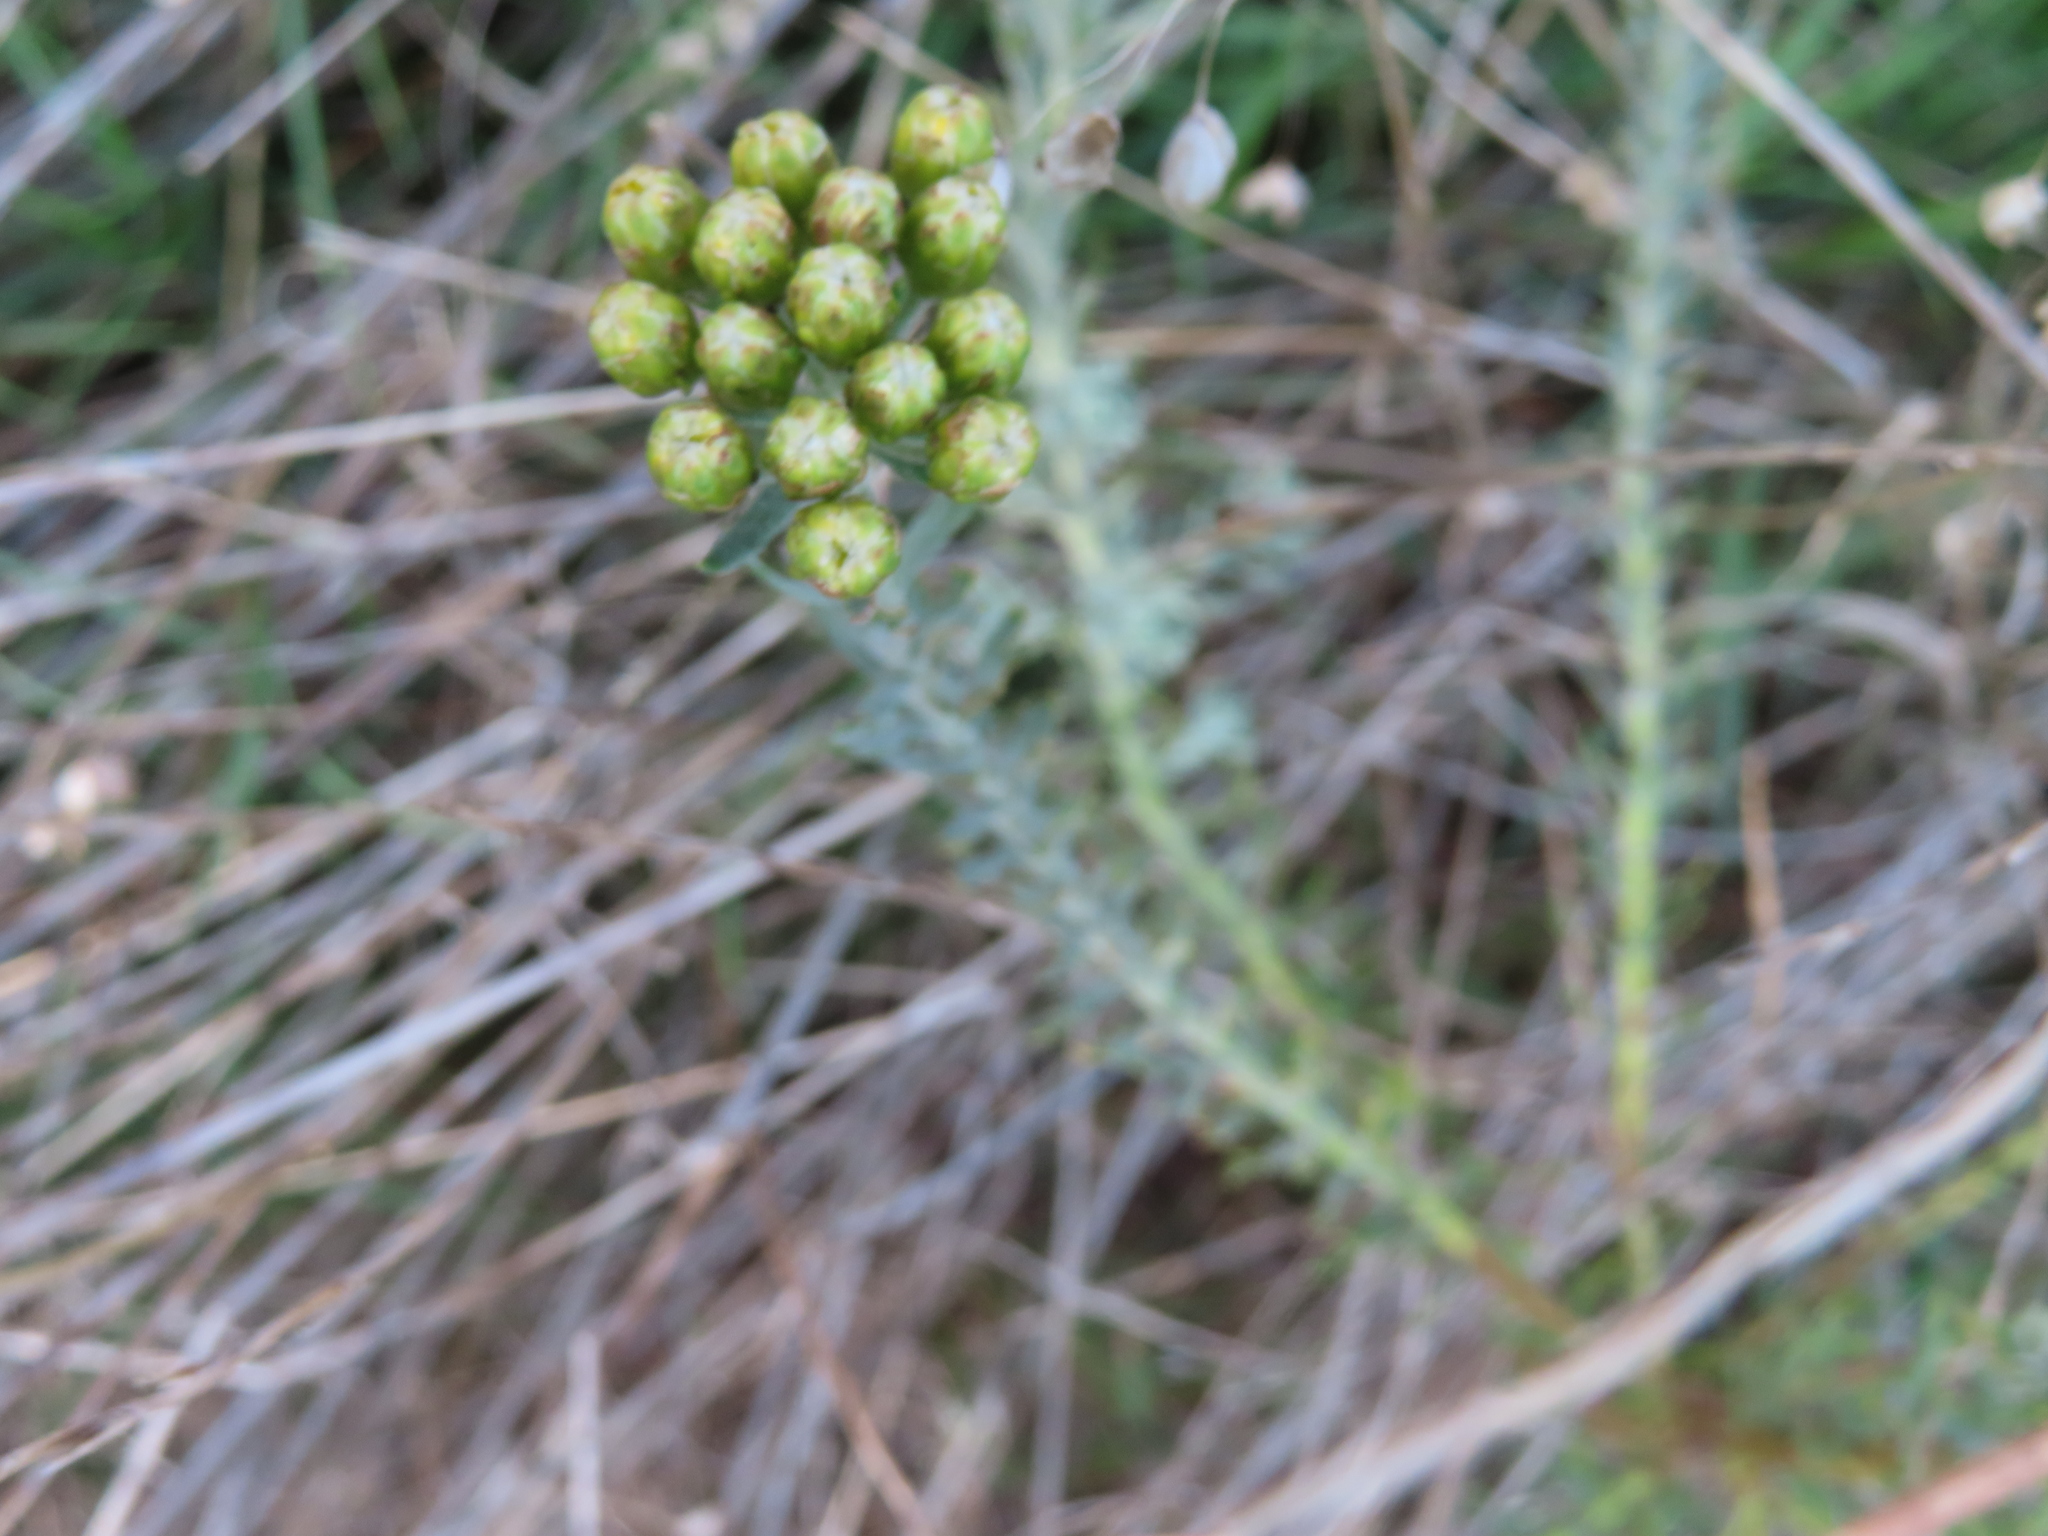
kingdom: Plantae
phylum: Tracheophyta
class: Magnoliopsida
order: Asterales
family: Asteraceae
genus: Athanasia
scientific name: Athanasia trifurcata
